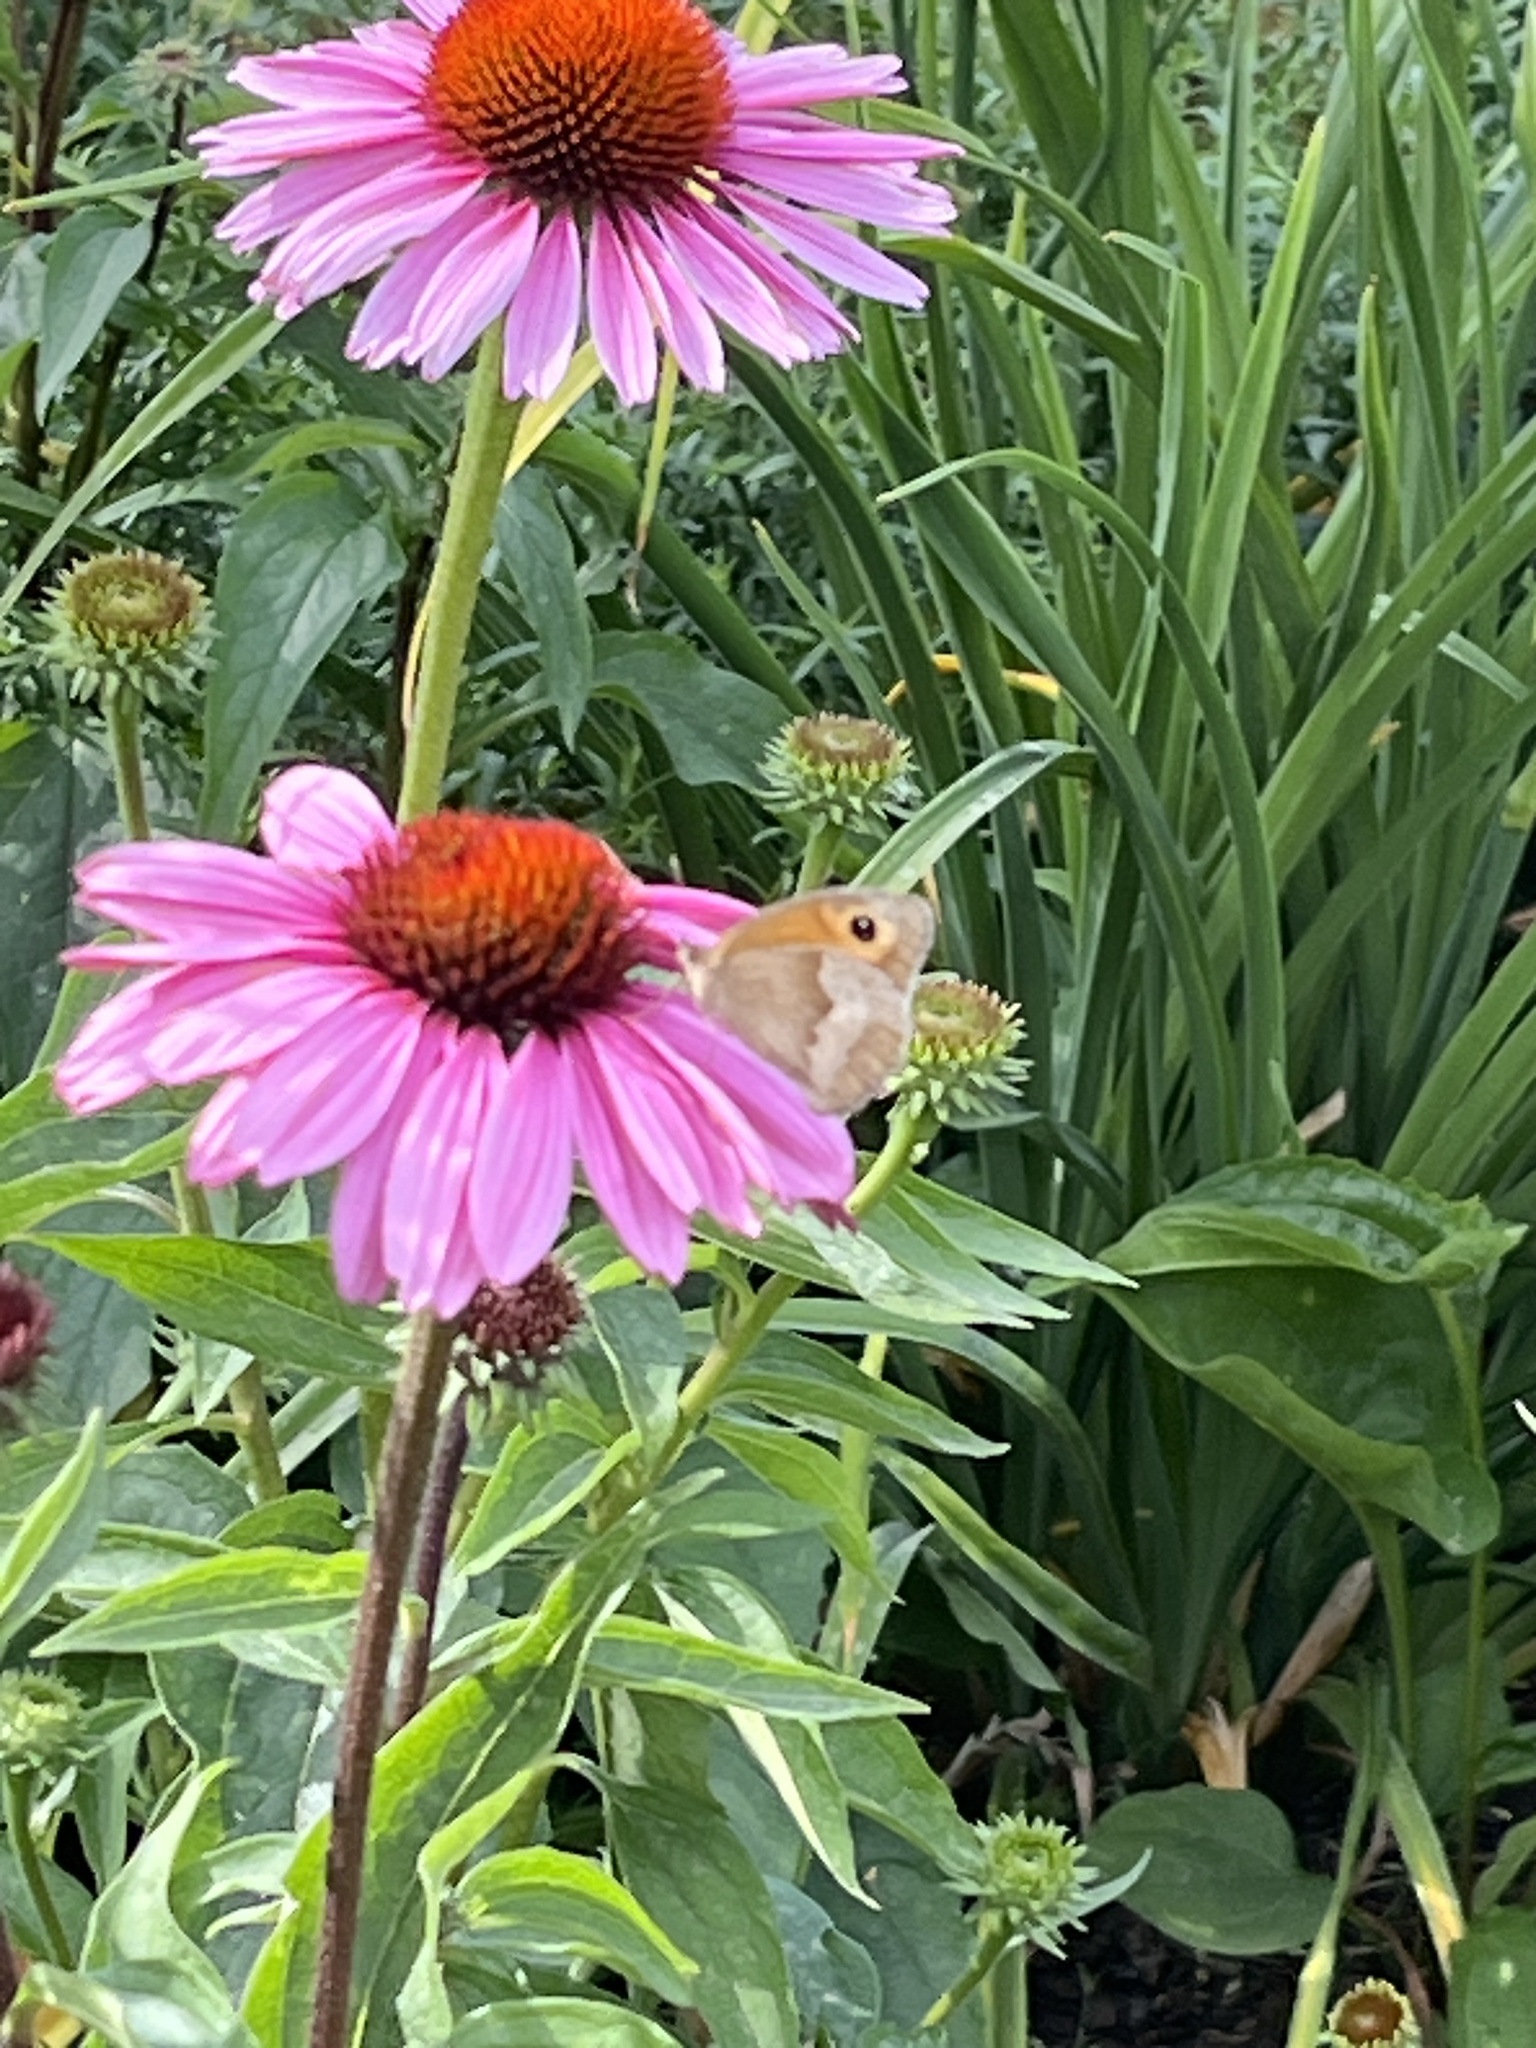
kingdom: Animalia
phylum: Arthropoda
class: Insecta
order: Lepidoptera
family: Nymphalidae
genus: Maniola
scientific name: Maniola jurtina
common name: Meadow brown
